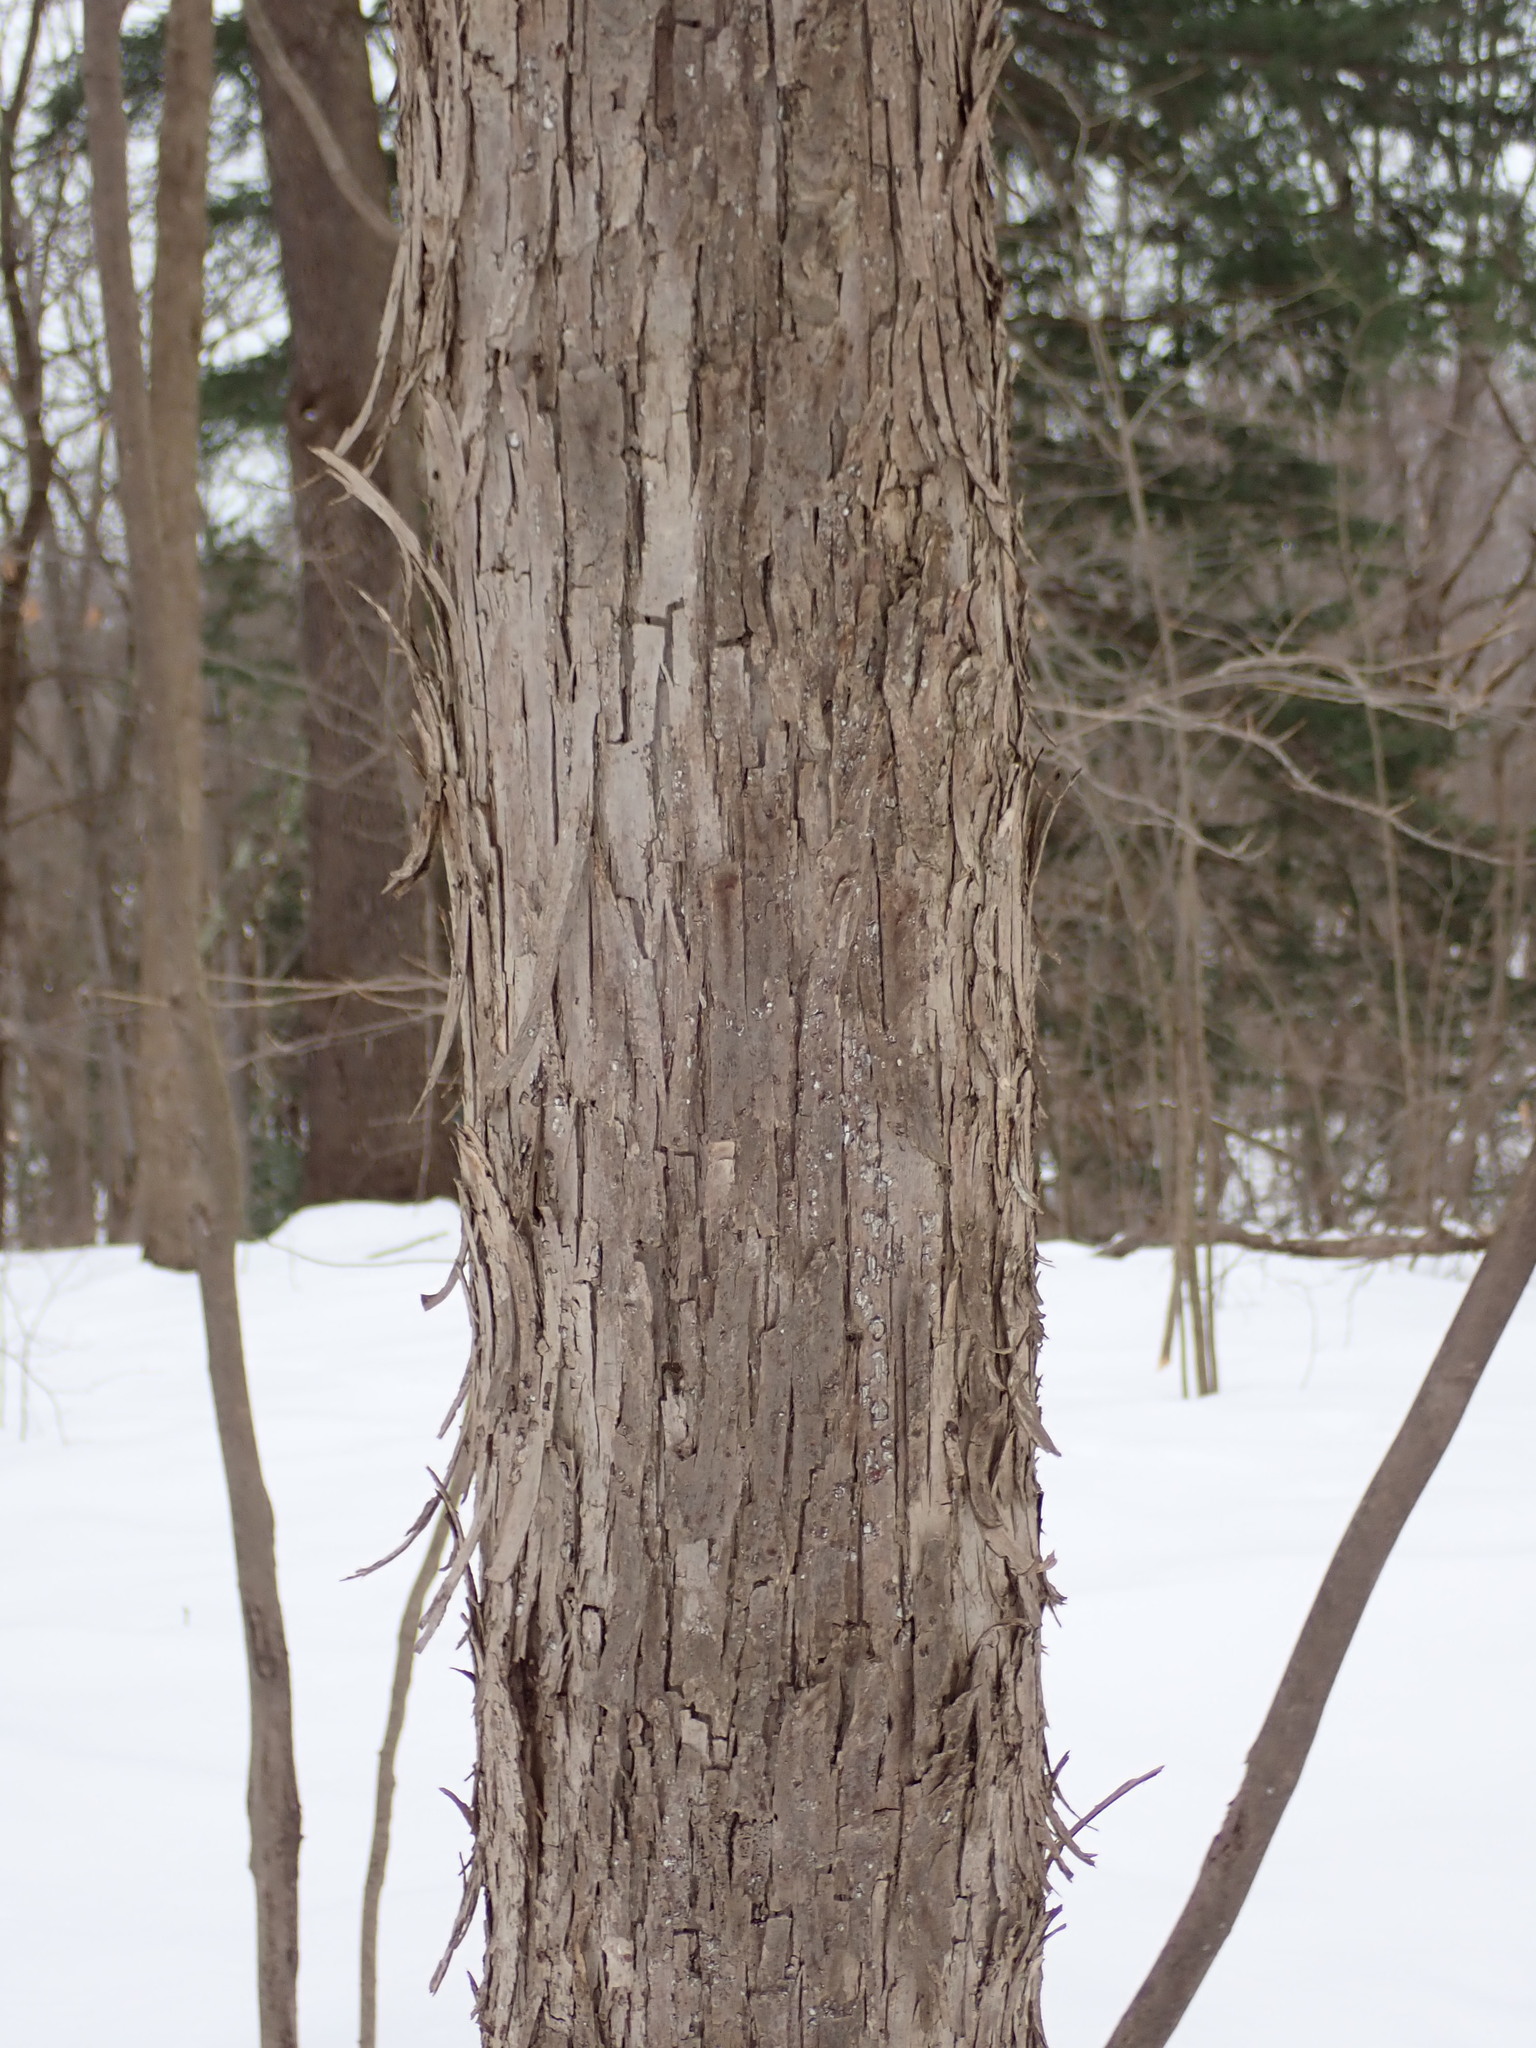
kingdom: Plantae
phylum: Tracheophyta
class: Magnoliopsida
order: Fagales
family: Juglandaceae
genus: Carya
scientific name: Carya ovata
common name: Shagbark hickory
